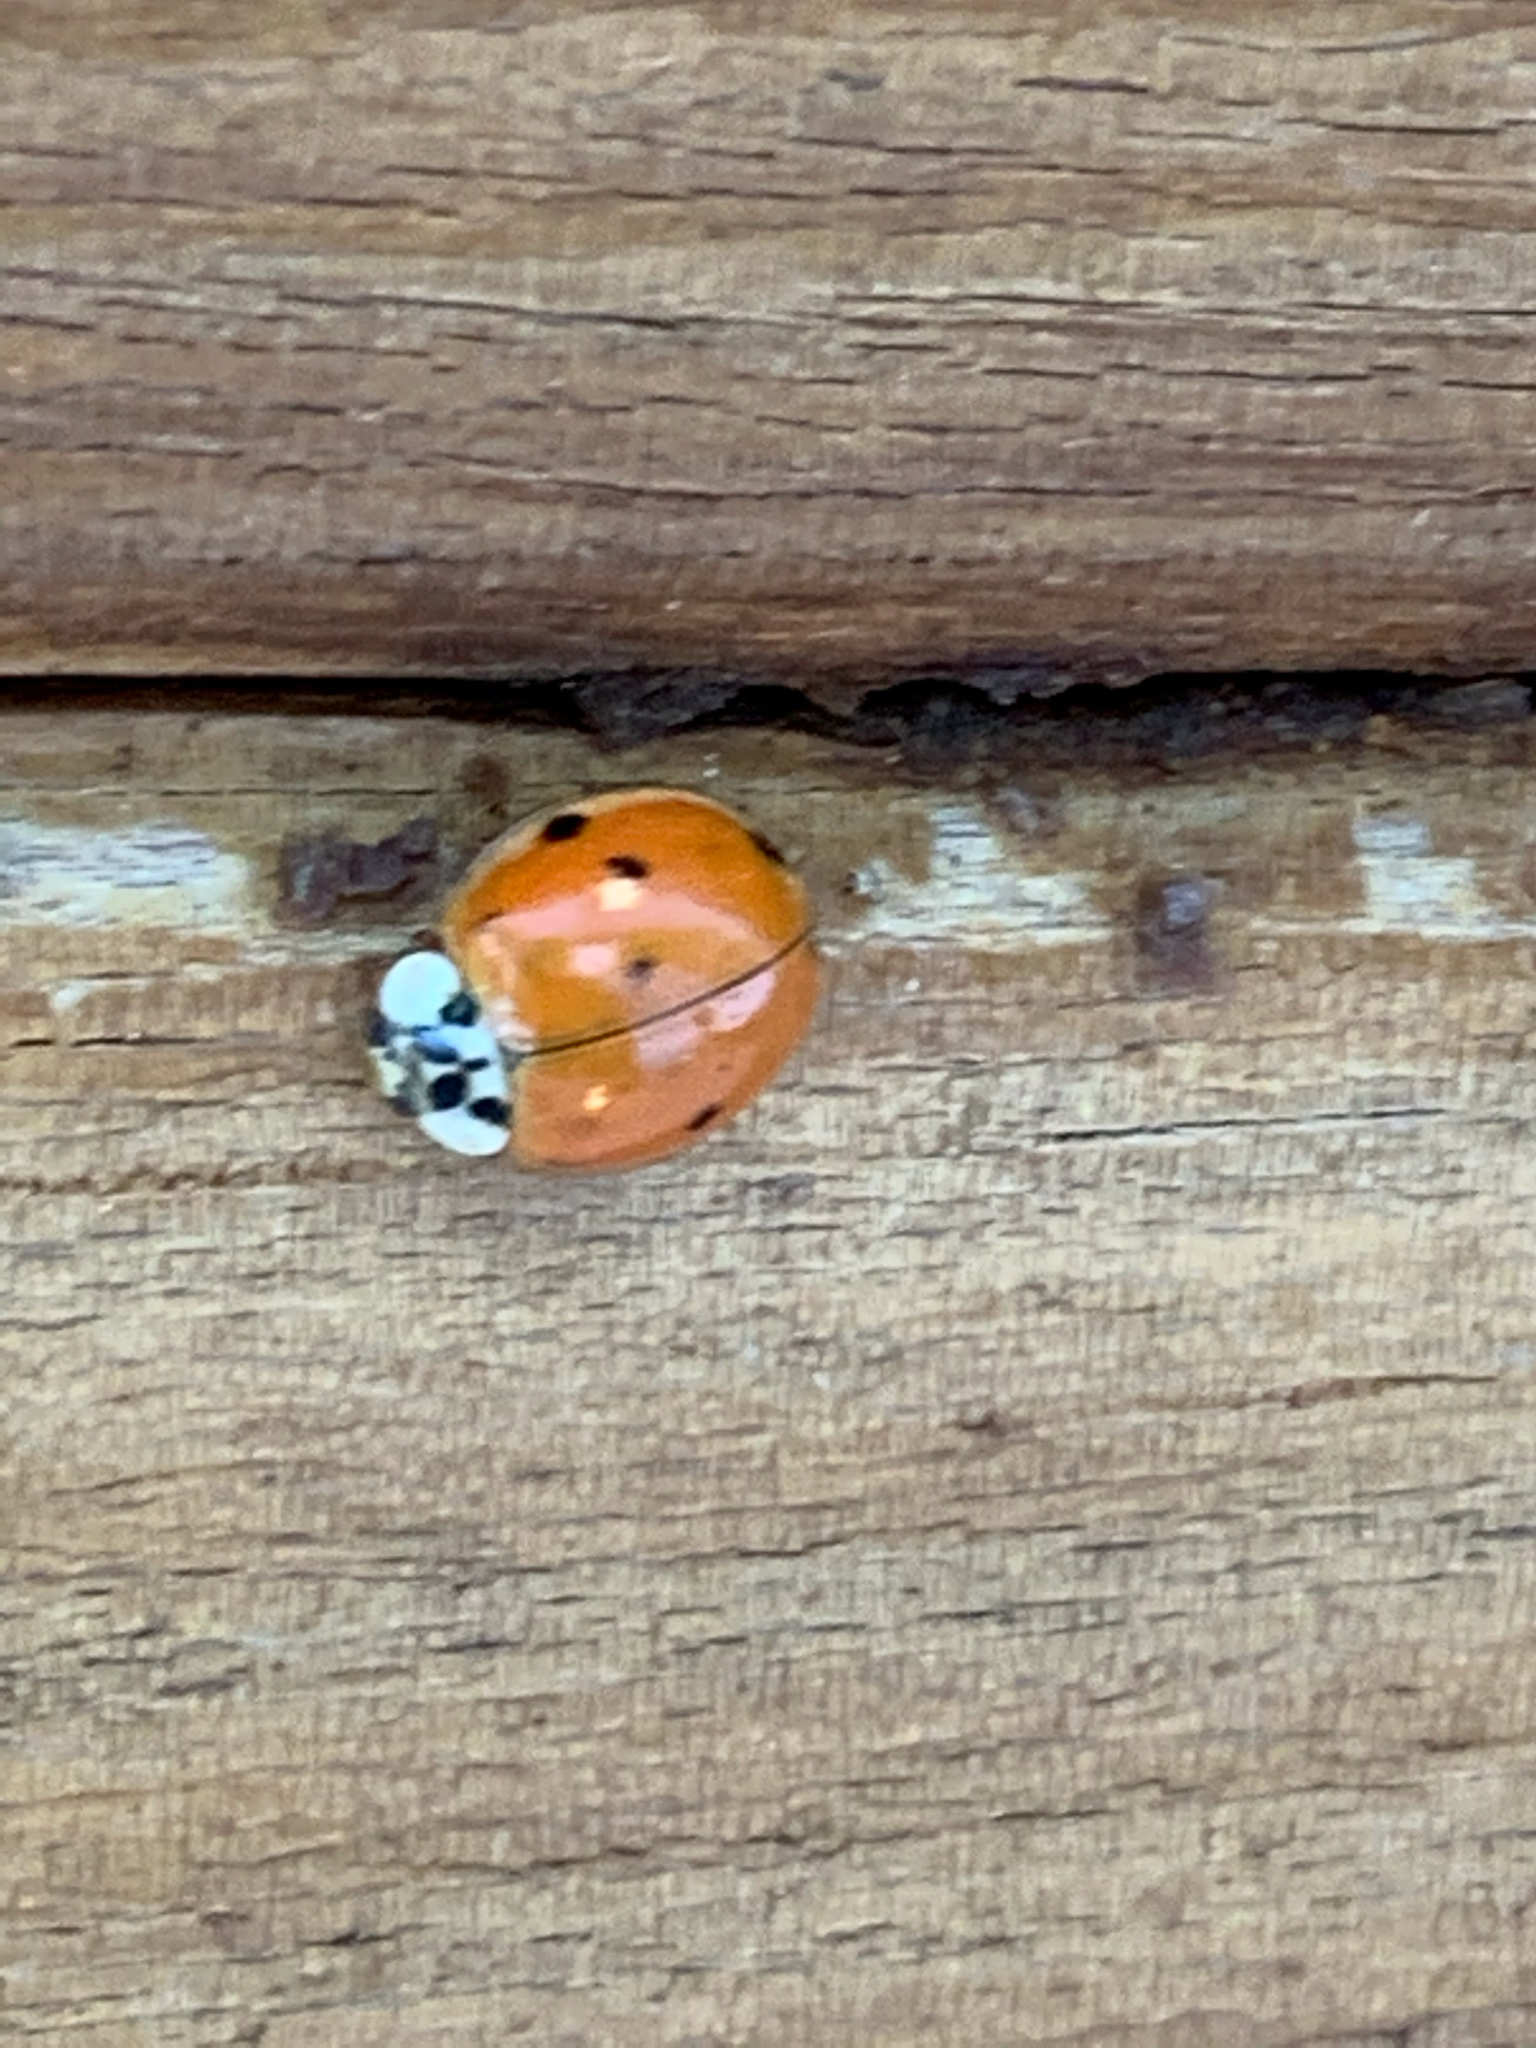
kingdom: Animalia
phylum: Arthropoda
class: Insecta
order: Coleoptera
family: Coccinellidae
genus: Harmonia
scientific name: Harmonia axyridis
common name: Harlequin ladybird
